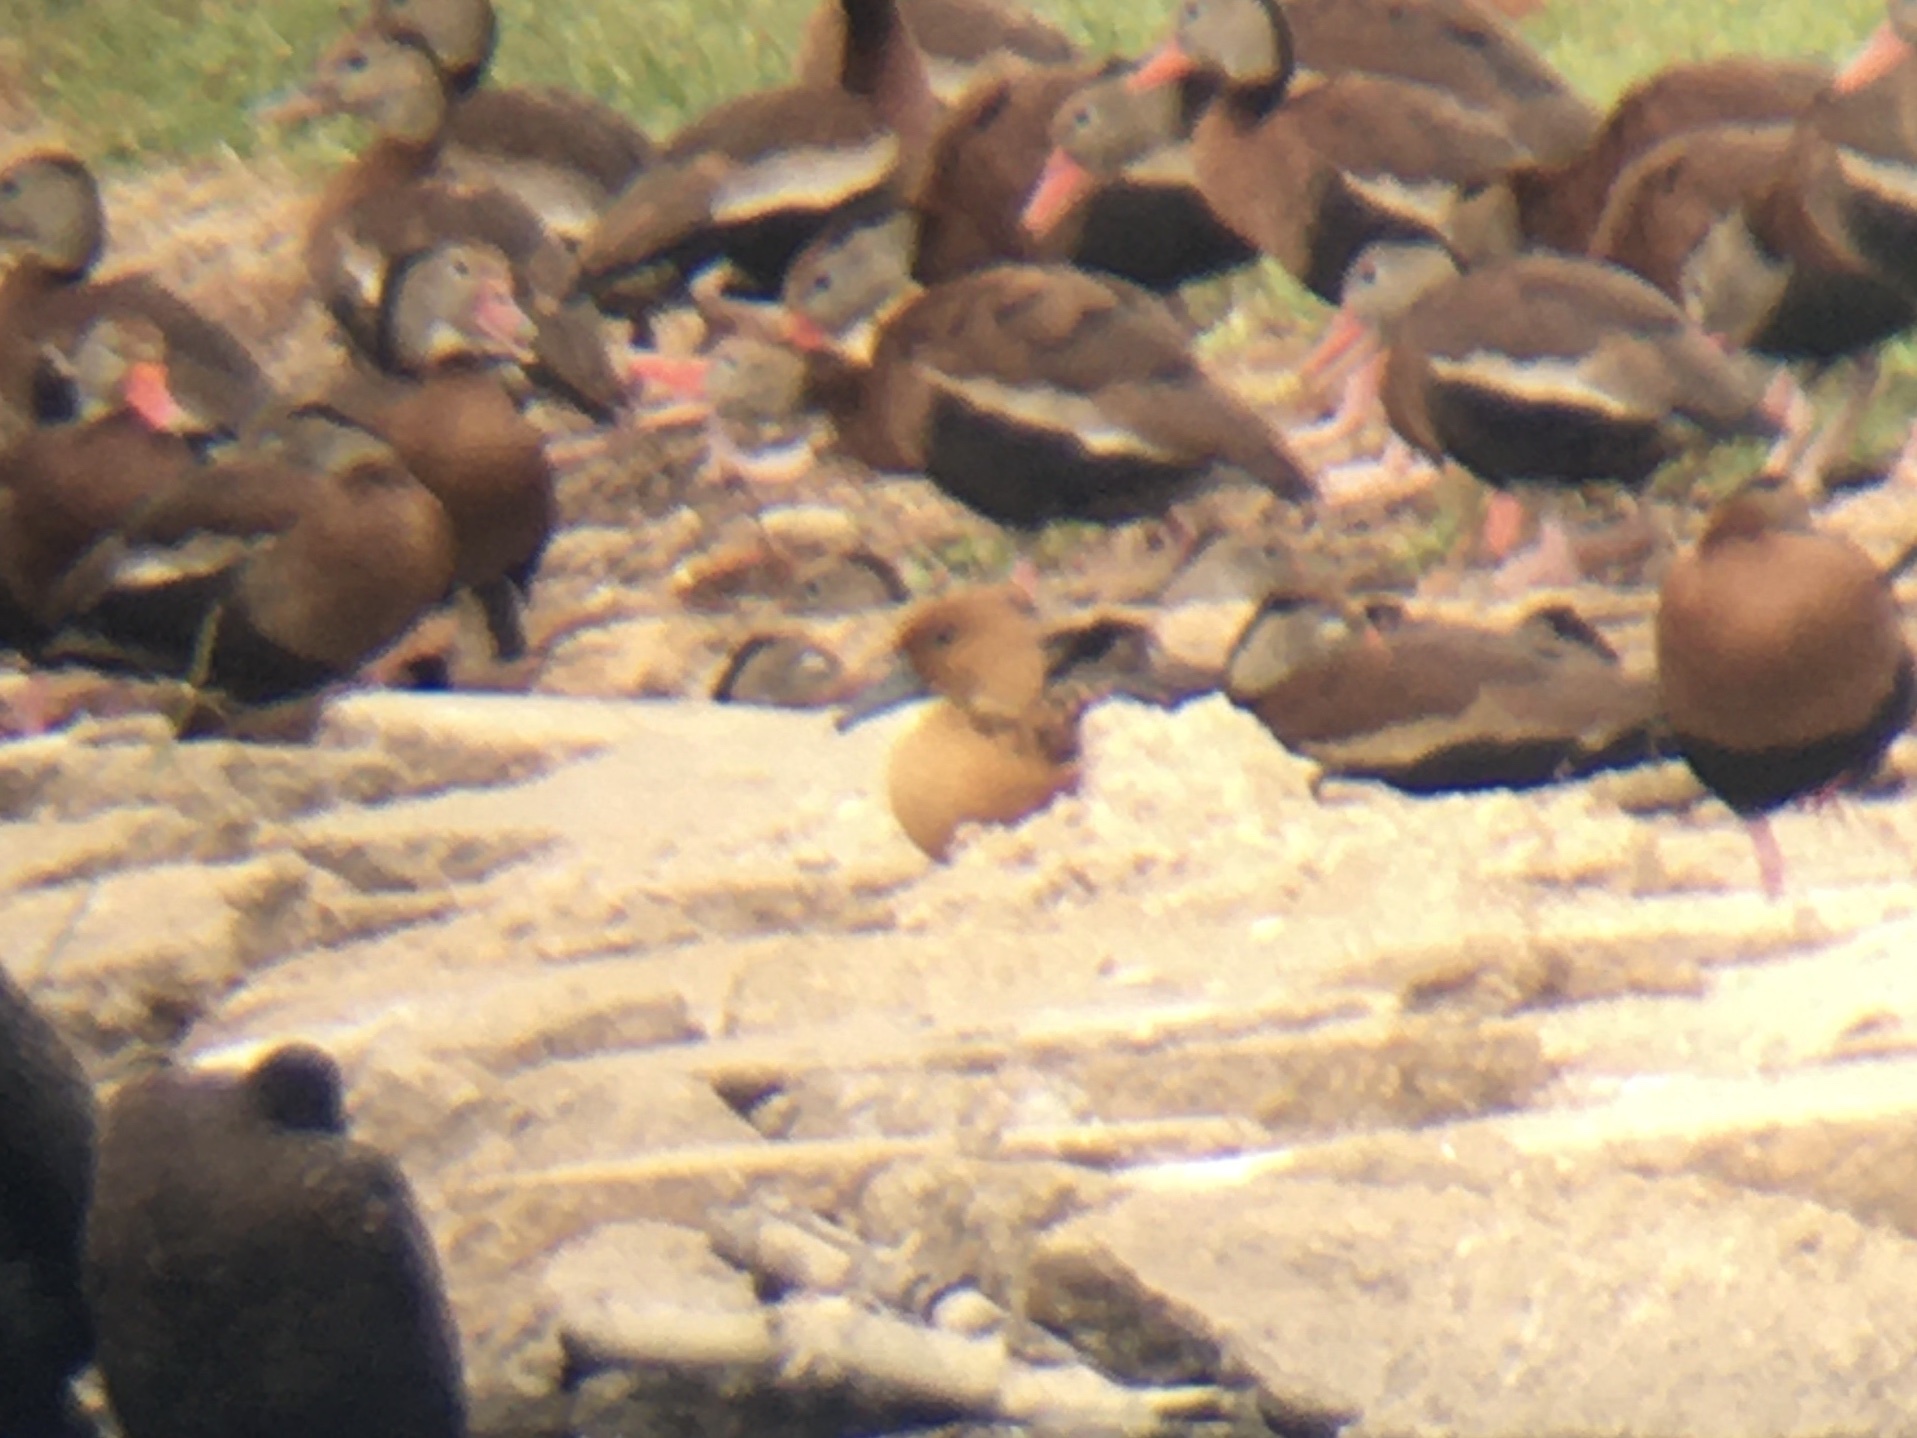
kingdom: Animalia
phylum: Chordata
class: Aves
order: Anseriformes
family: Anatidae
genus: Dendrocygna
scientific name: Dendrocygna bicolor
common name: Fulvous whistling duck
